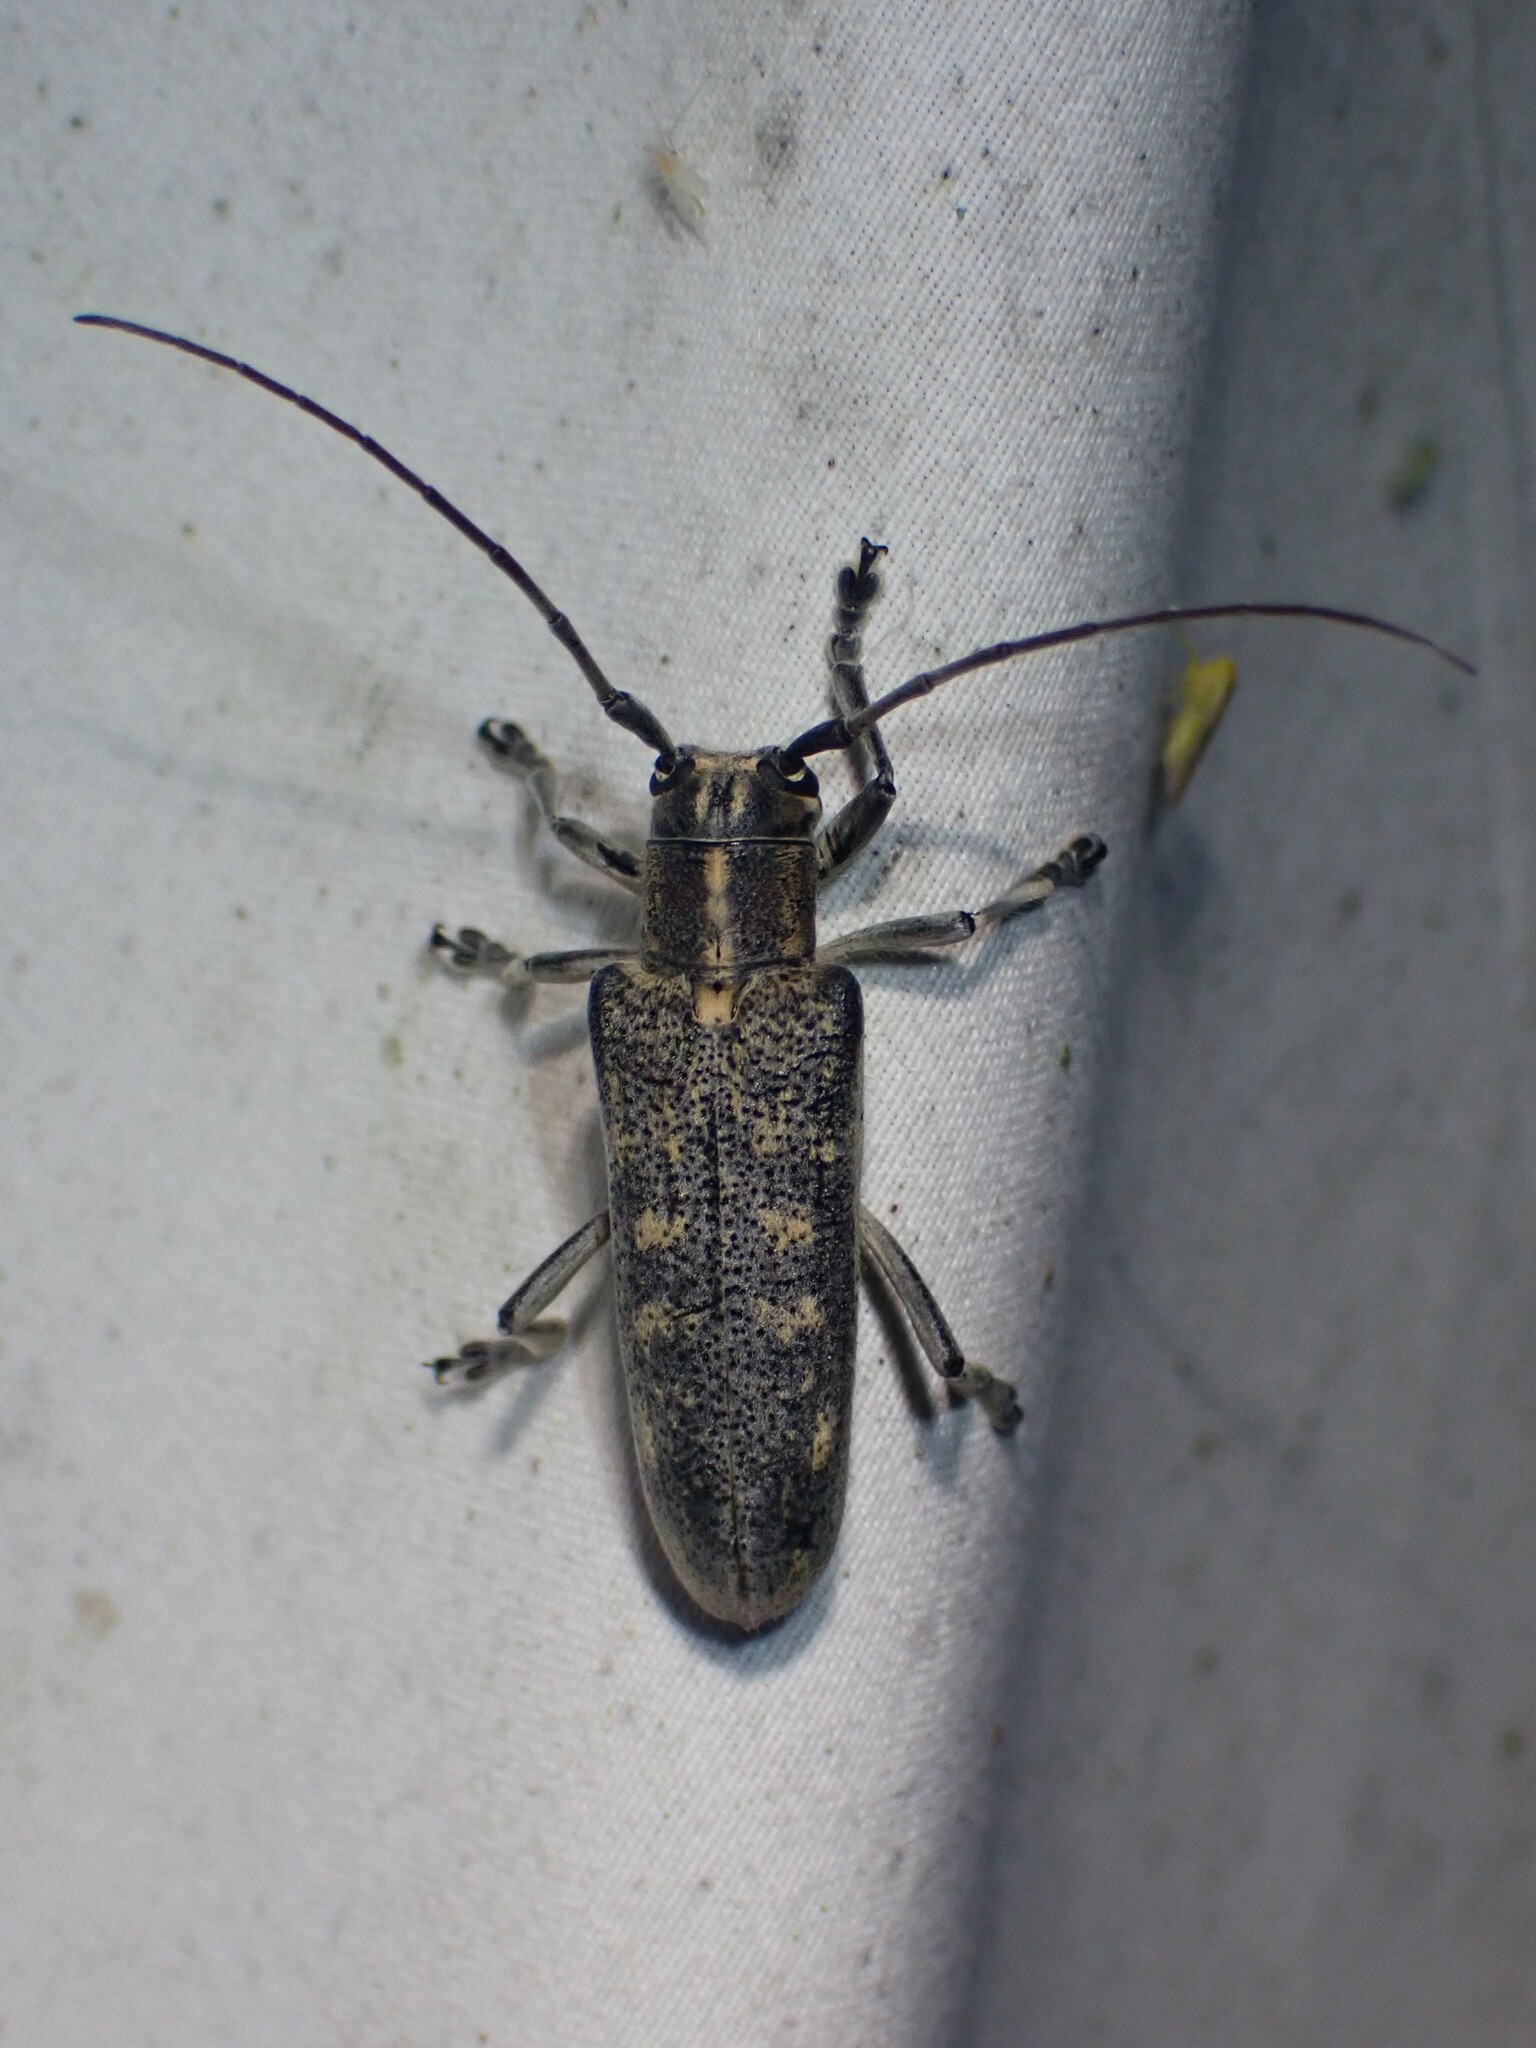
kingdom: Animalia
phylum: Arthropoda
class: Insecta
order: Coleoptera
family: Cerambycidae
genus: Saperda
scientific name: Saperda calcarata
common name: Poplar borer
